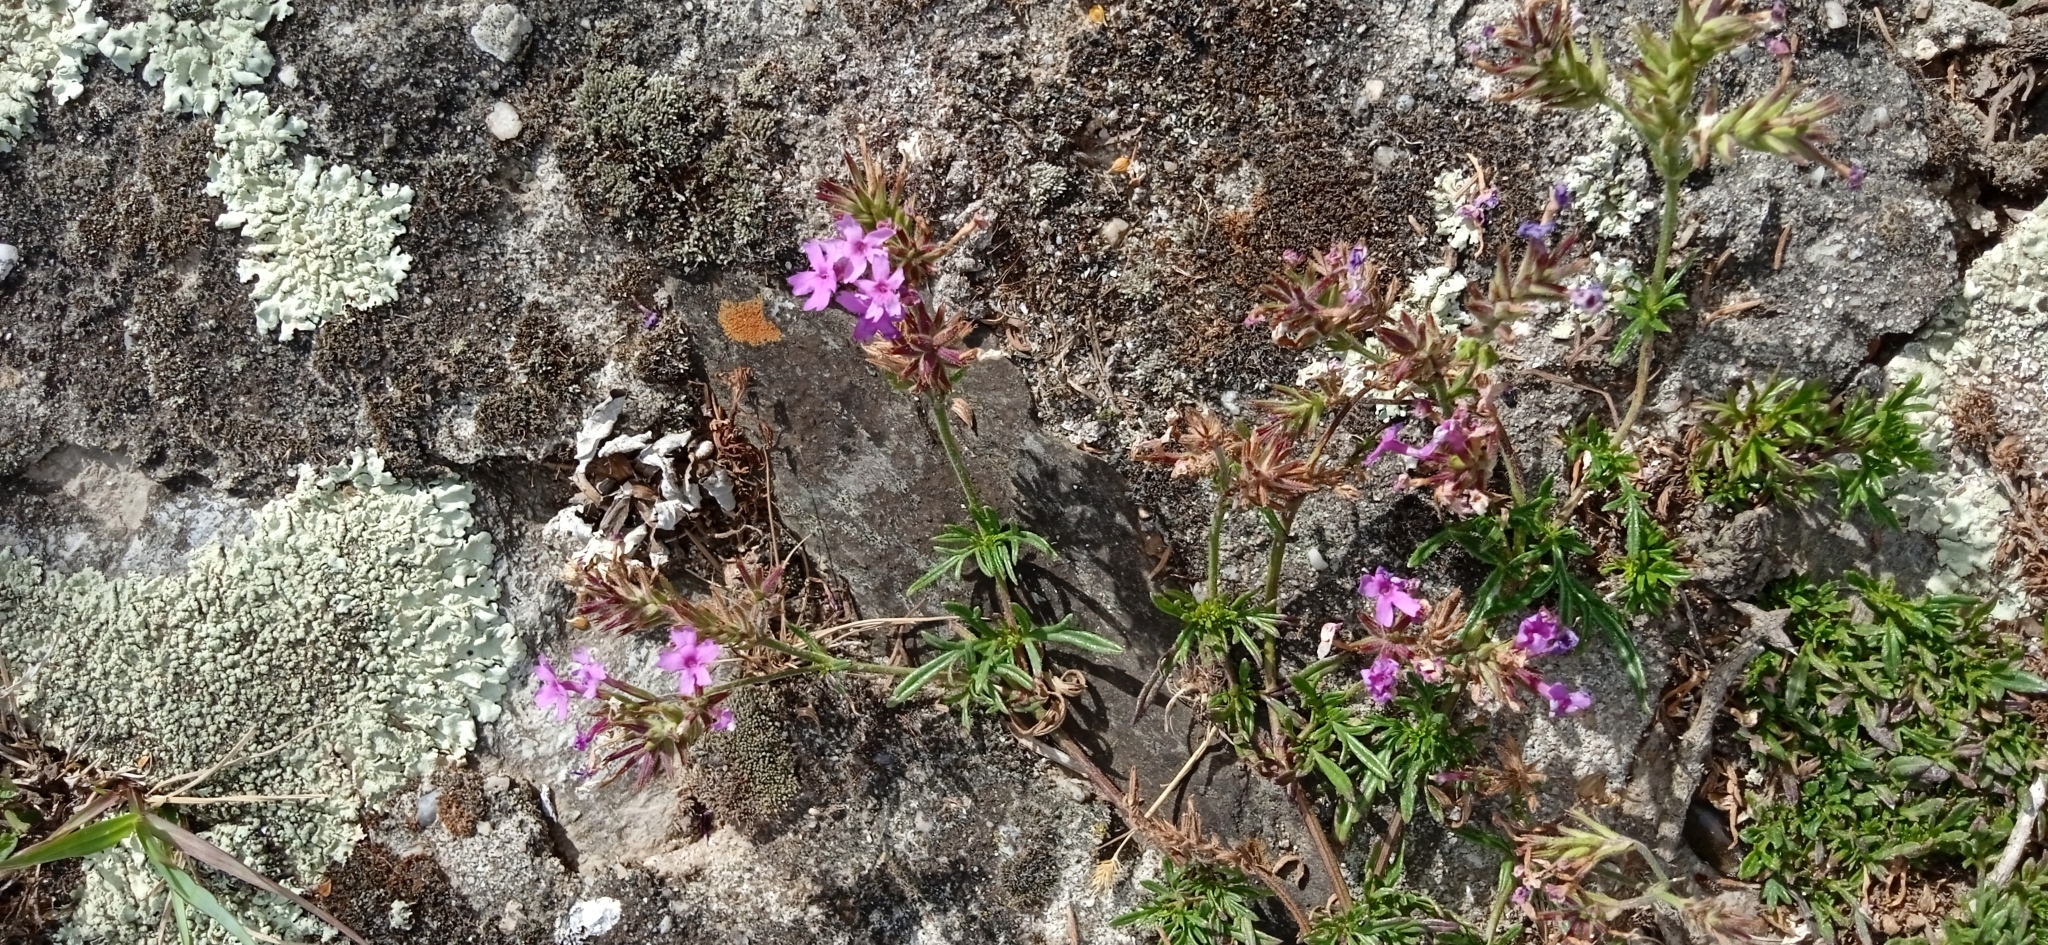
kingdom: Plantae
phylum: Tracheophyta
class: Magnoliopsida
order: Lamiales
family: Verbenaceae
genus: Verbena
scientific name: Verbena selloi
